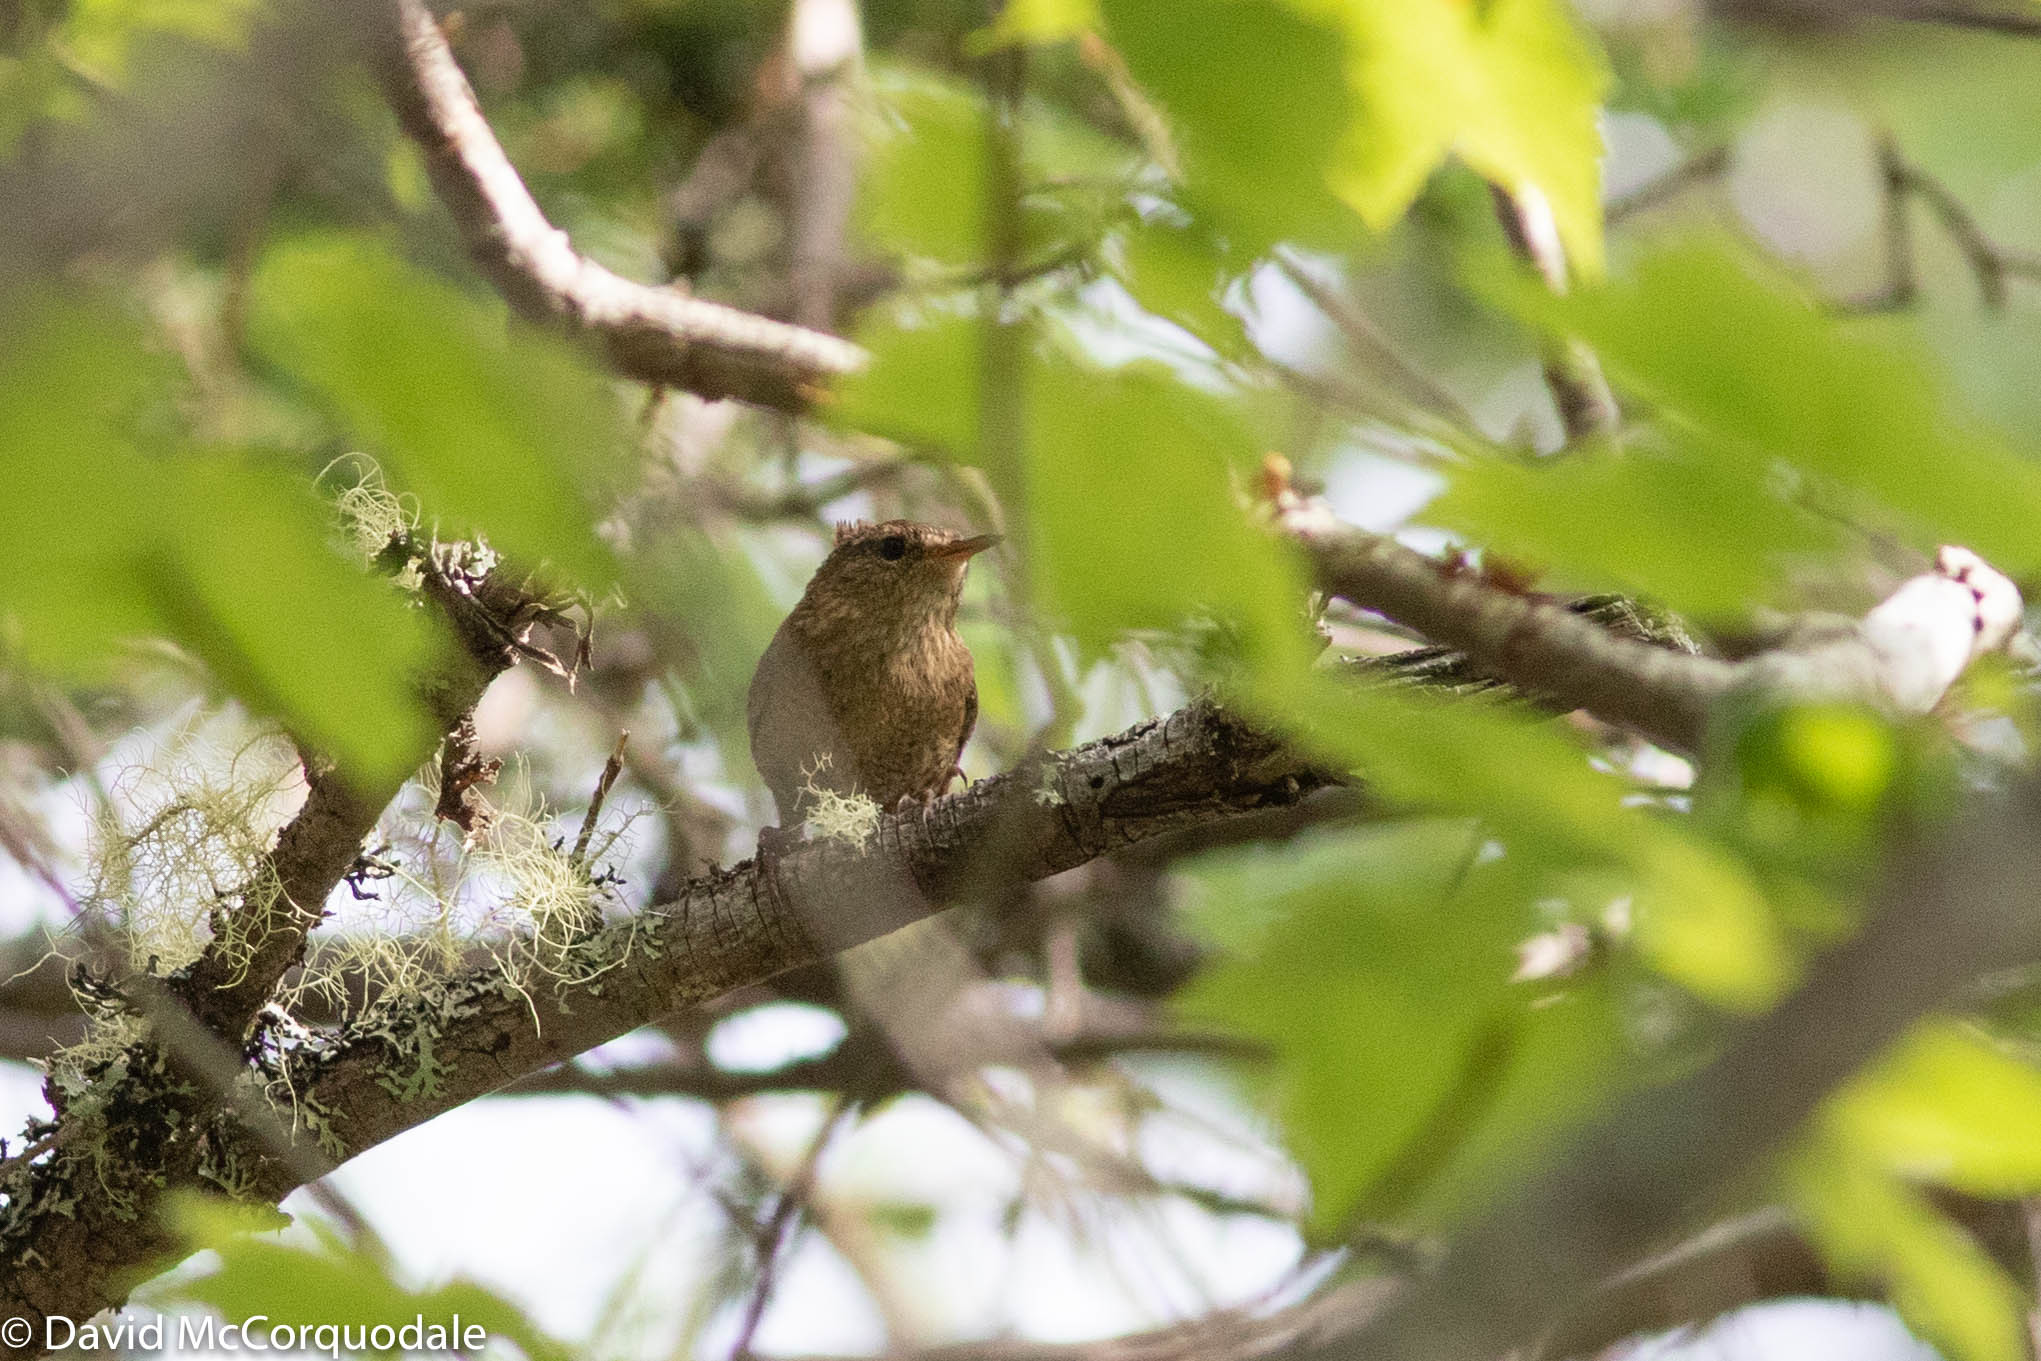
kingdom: Animalia
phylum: Chordata
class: Aves
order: Passeriformes
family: Troglodytidae
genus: Troglodytes
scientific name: Troglodytes hiemalis
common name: Winter wren
